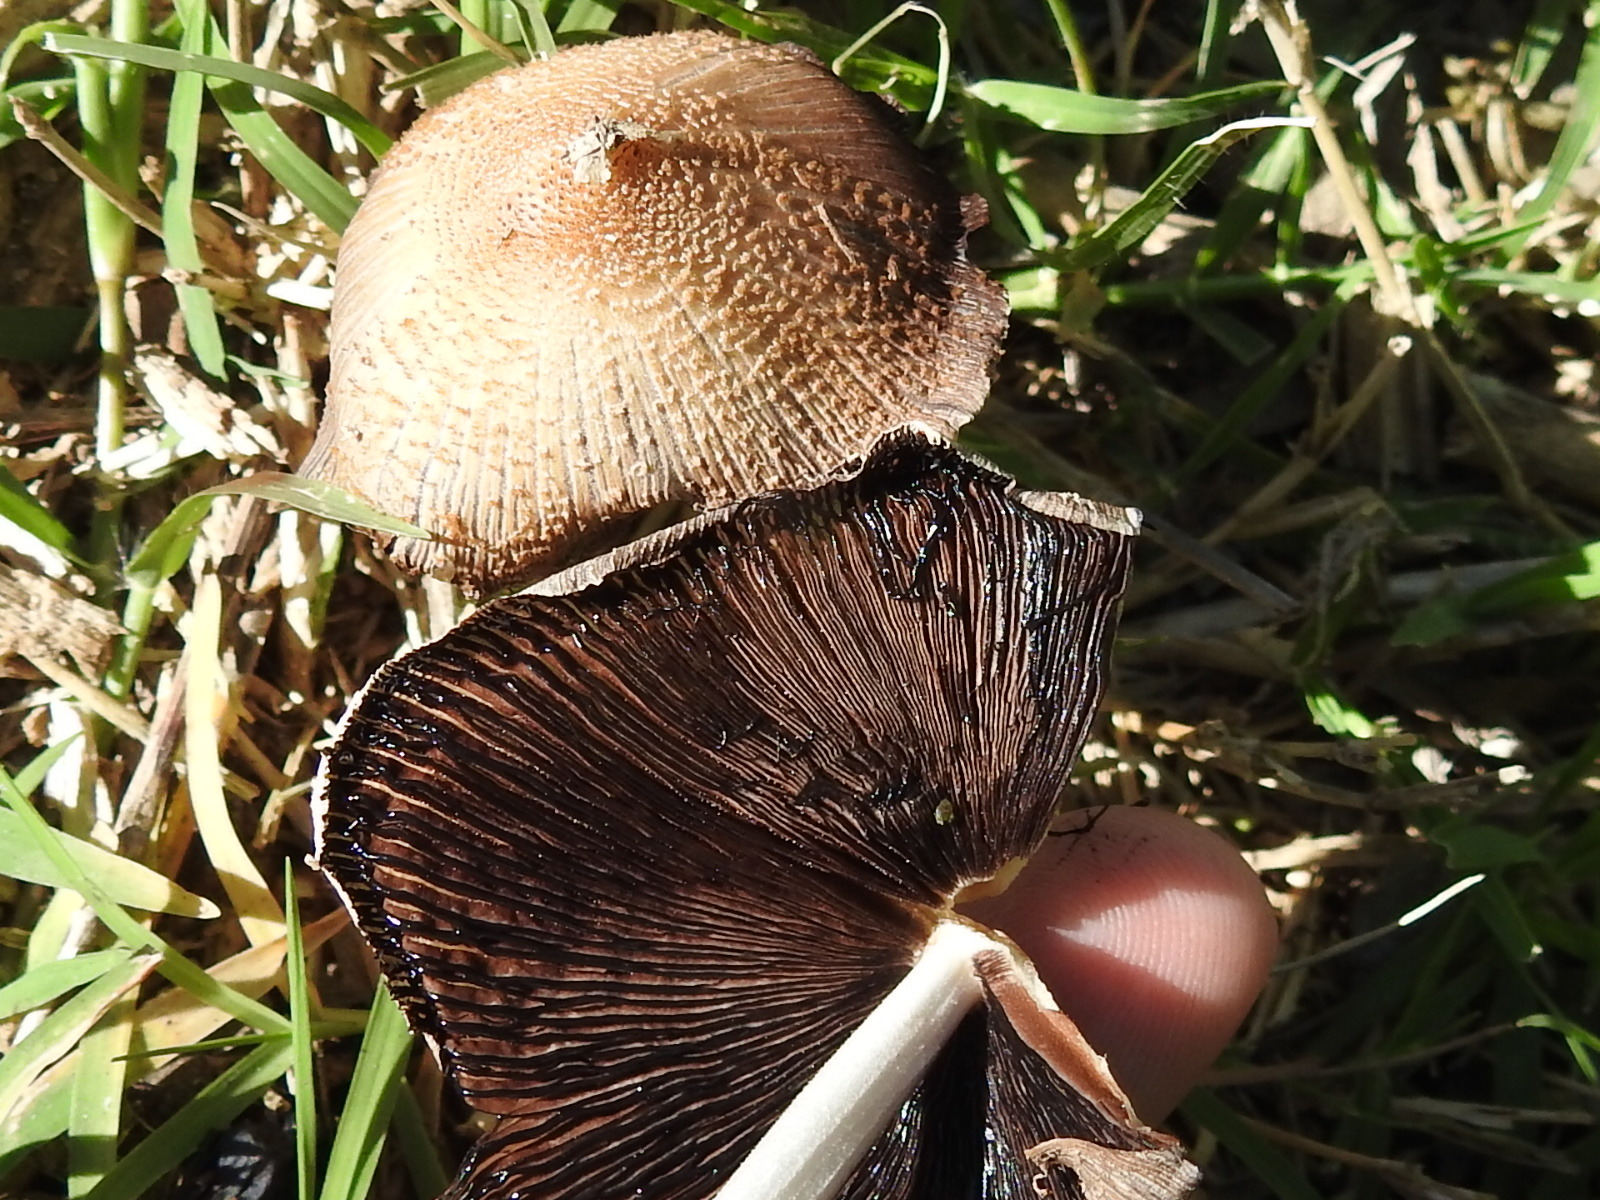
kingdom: Fungi
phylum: Basidiomycota
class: Agaricomycetes
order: Agaricales
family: Psathyrellaceae
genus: Coprinellus
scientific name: Coprinellus domesticus
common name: Firerug inkcap
